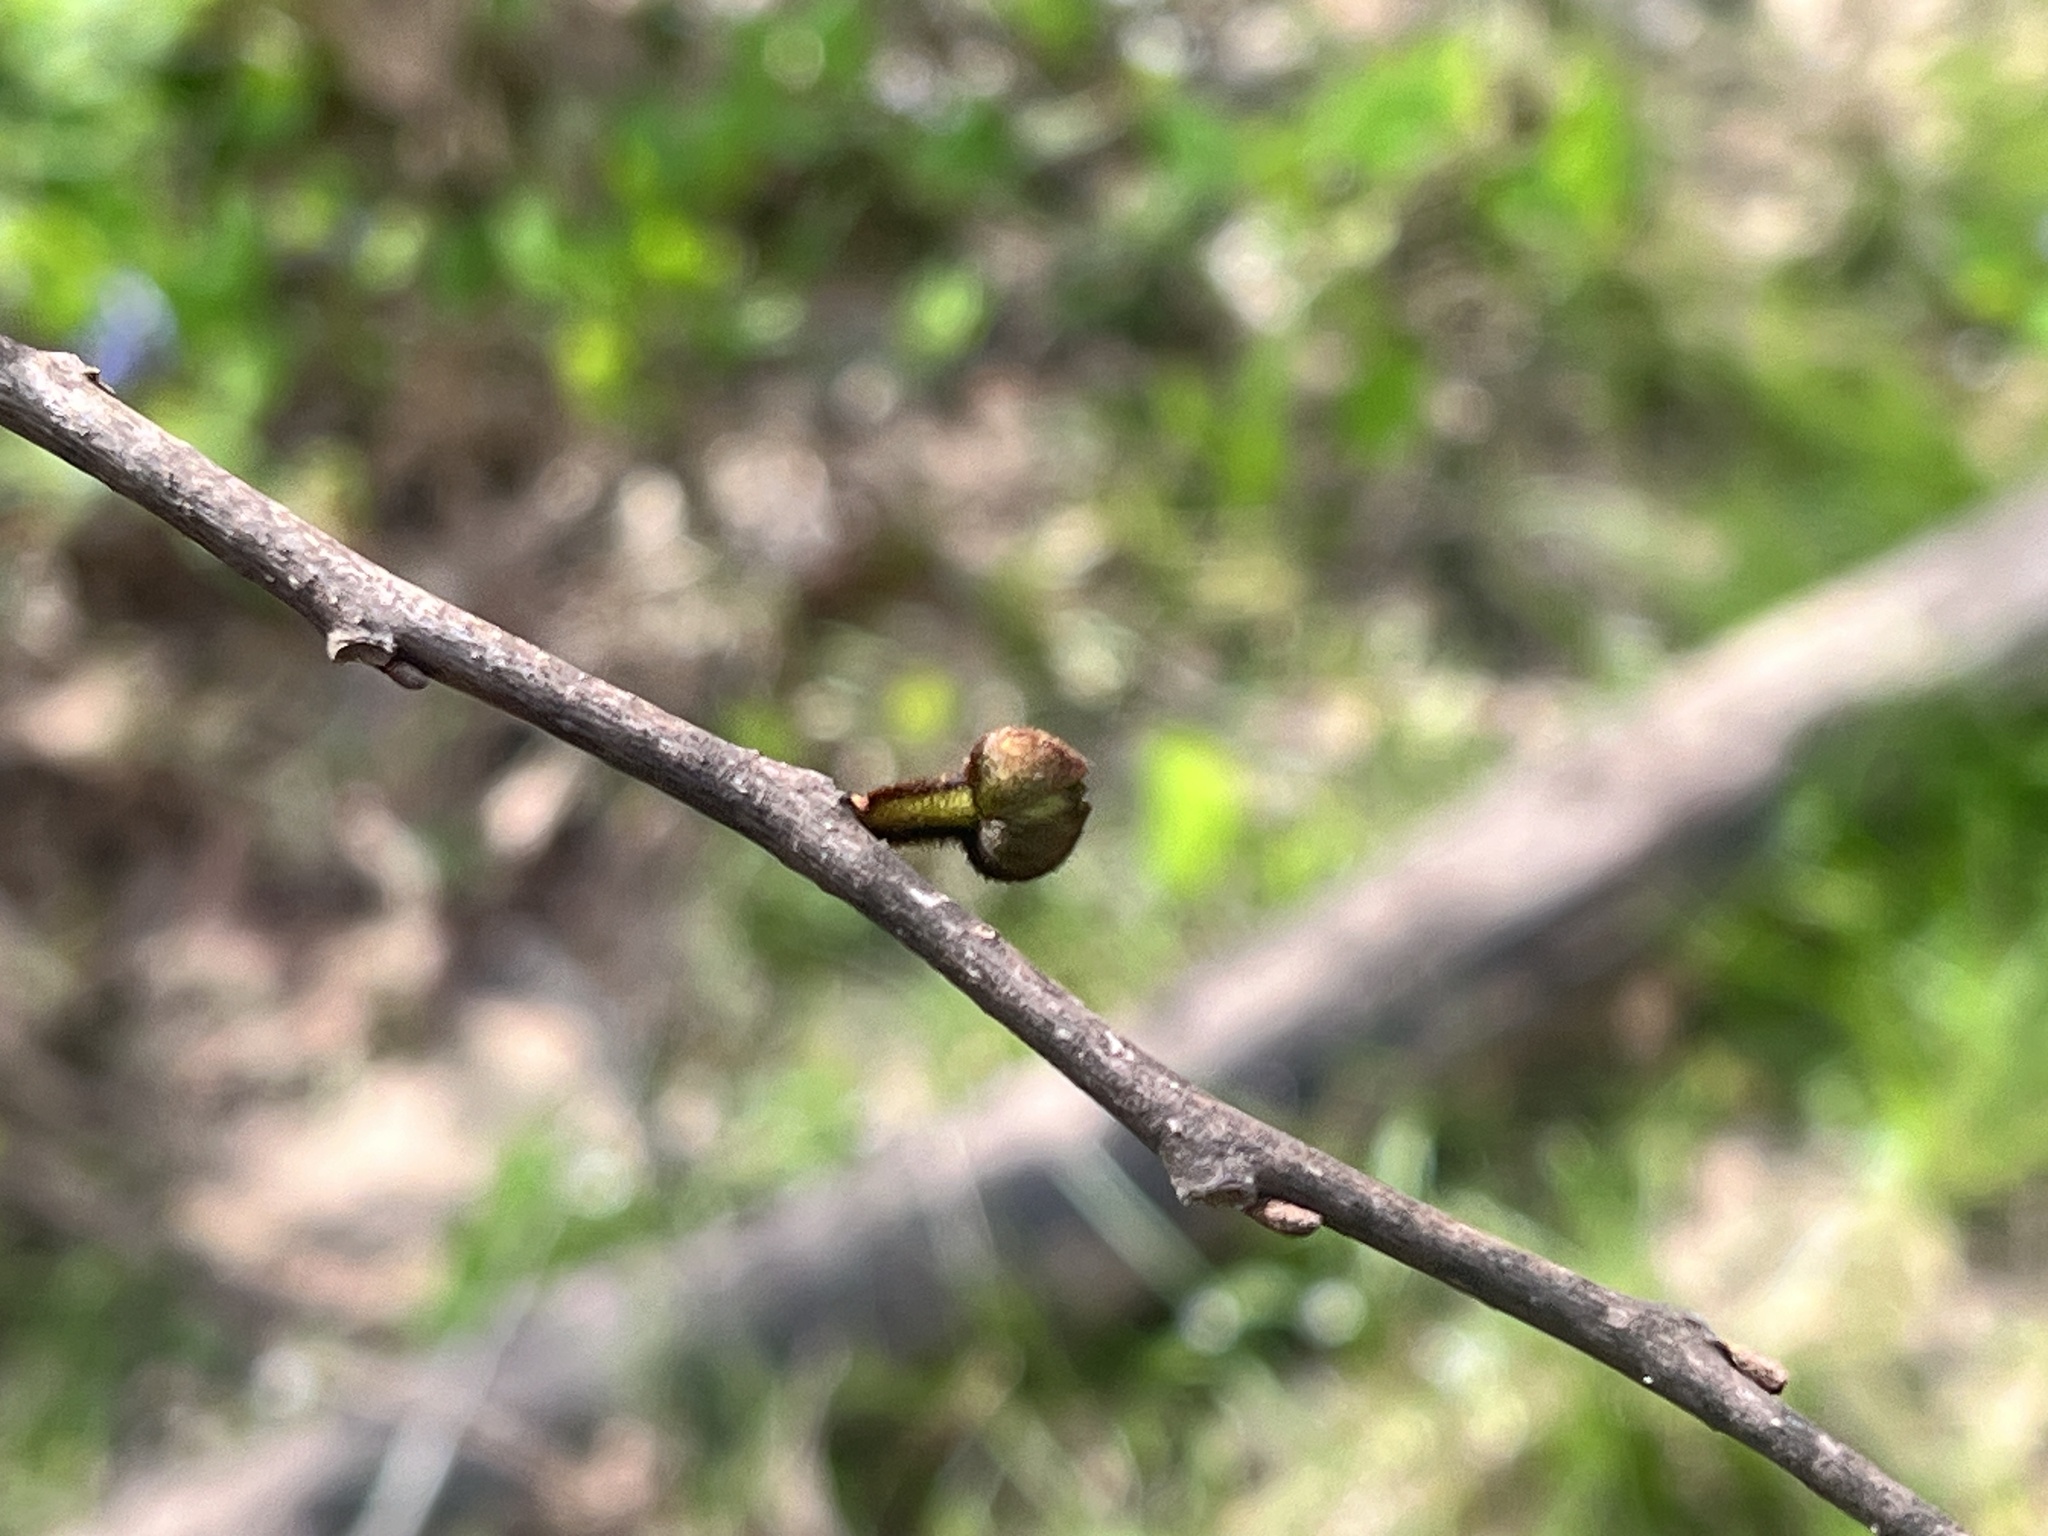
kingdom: Plantae
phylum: Tracheophyta
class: Magnoliopsida
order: Magnoliales
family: Annonaceae
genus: Asimina
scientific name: Asimina triloba
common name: Dog-banana
